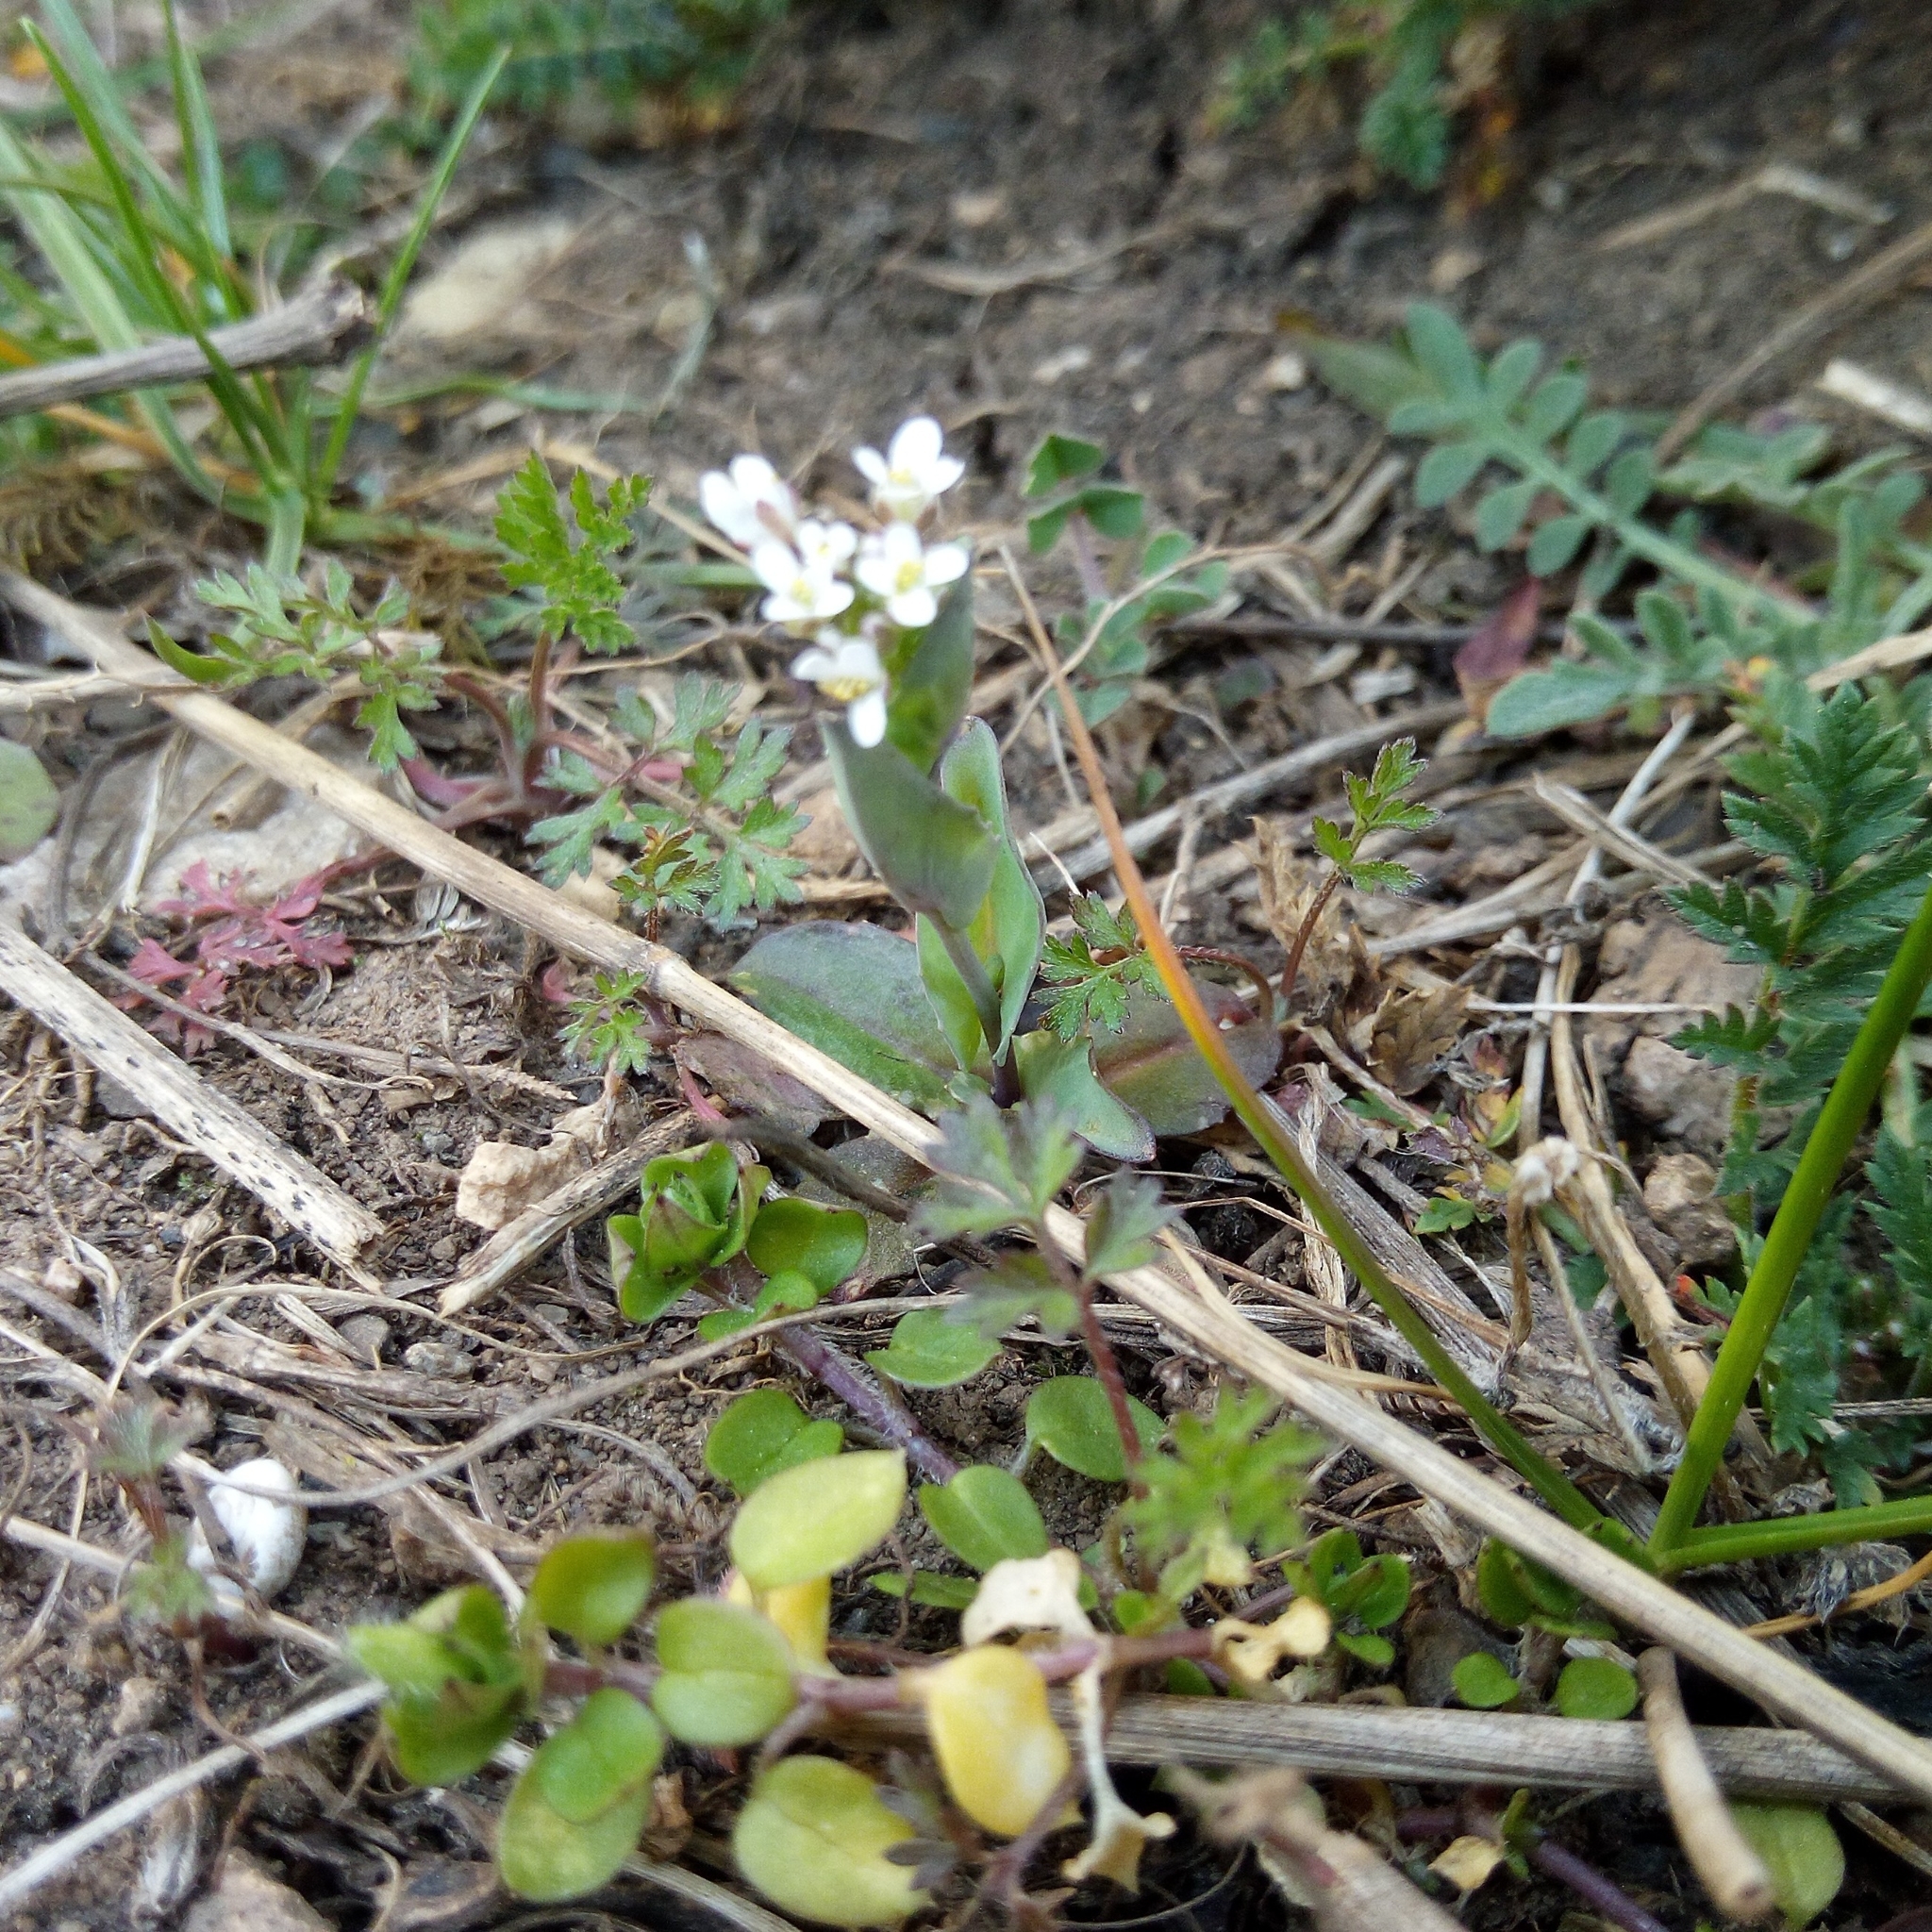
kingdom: Plantae
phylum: Tracheophyta
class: Magnoliopsida
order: Brassicales
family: Brassicaceae
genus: Noccaea
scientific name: Noccaea perfoliata
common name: Perfoliate pennycress
